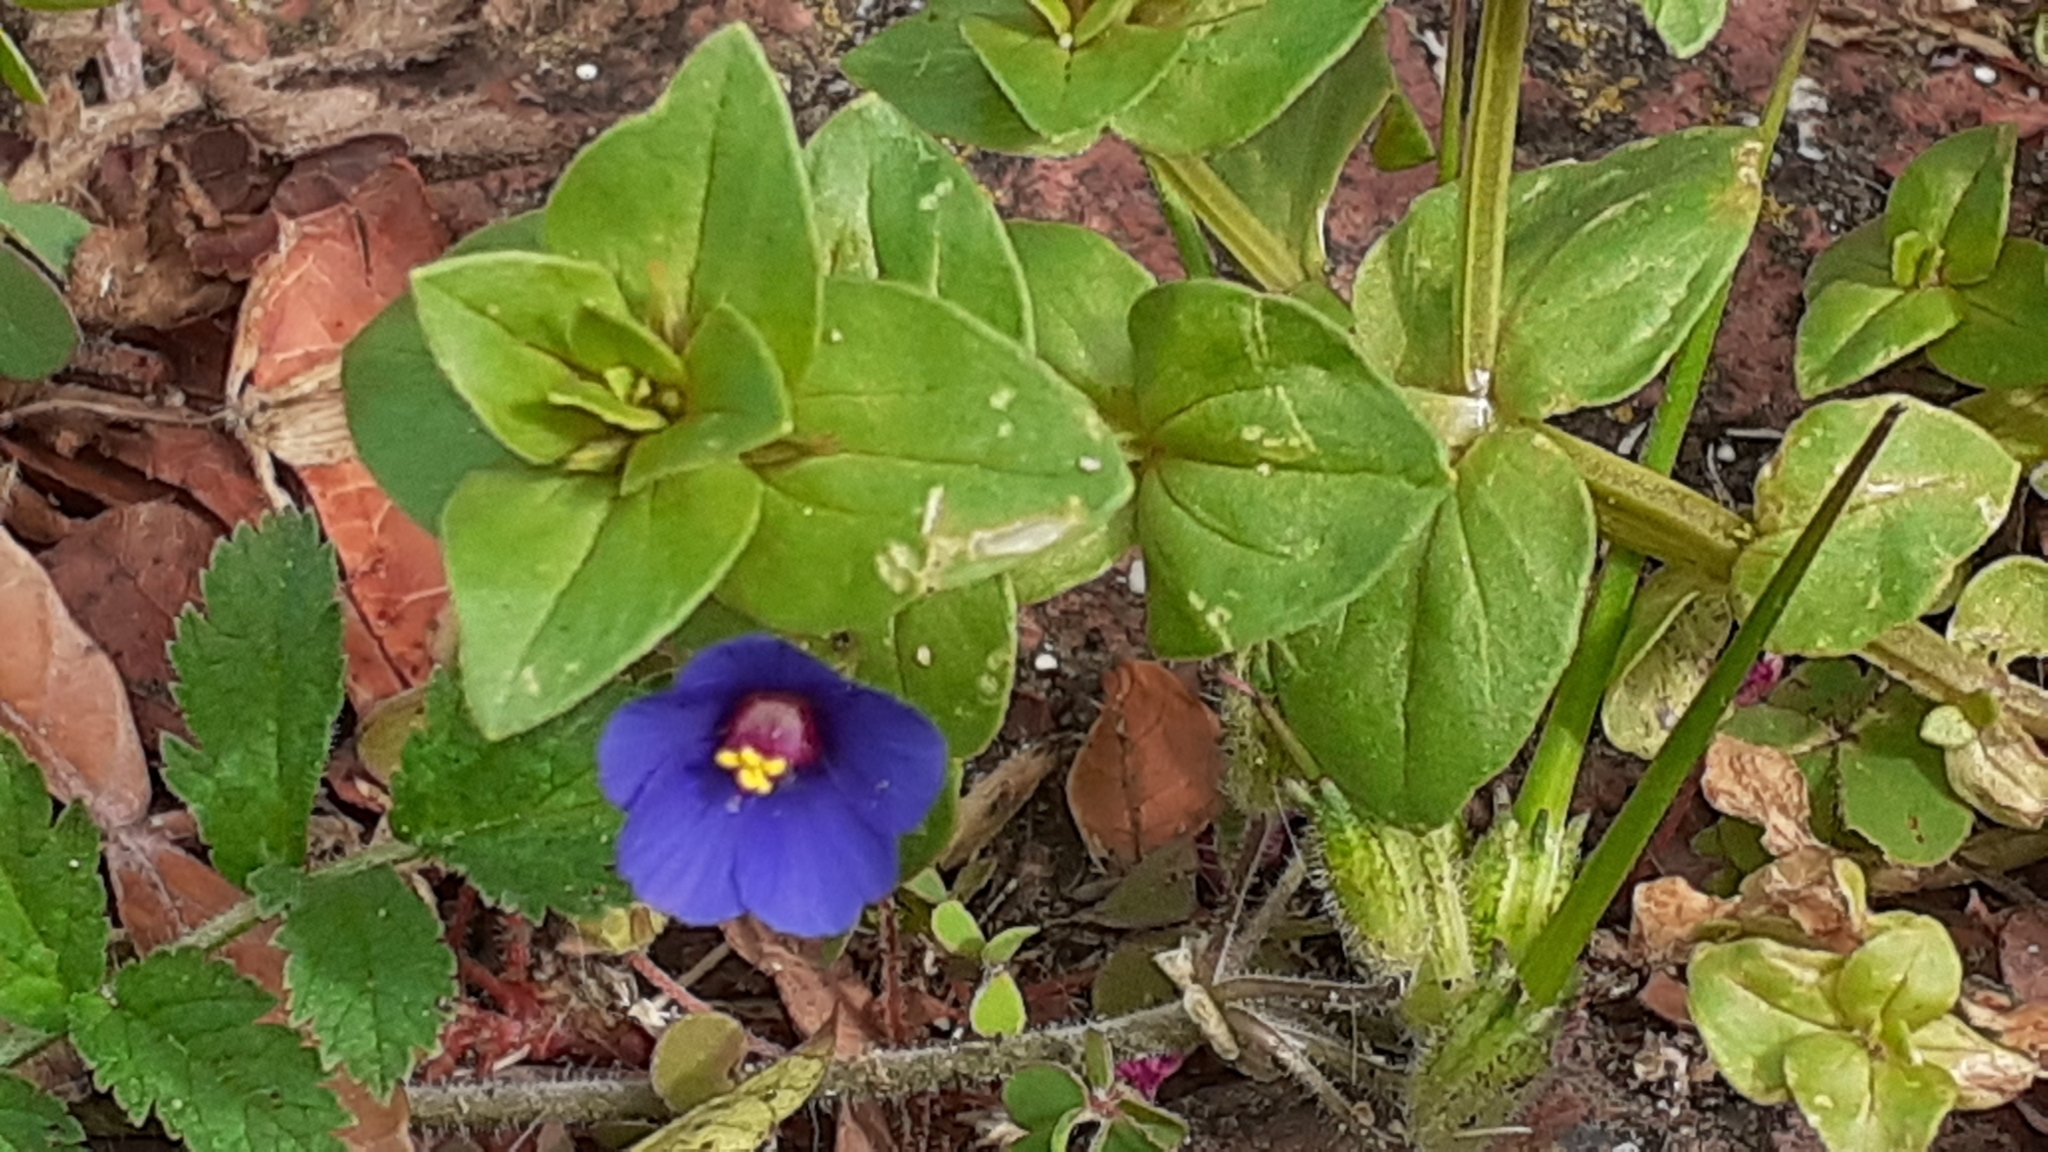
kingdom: Plantae
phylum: Tracheophyta
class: Magnoliopsida
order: Ericales
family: Primulaceae
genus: Lysimachia
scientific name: Lysimachia loeflingii
